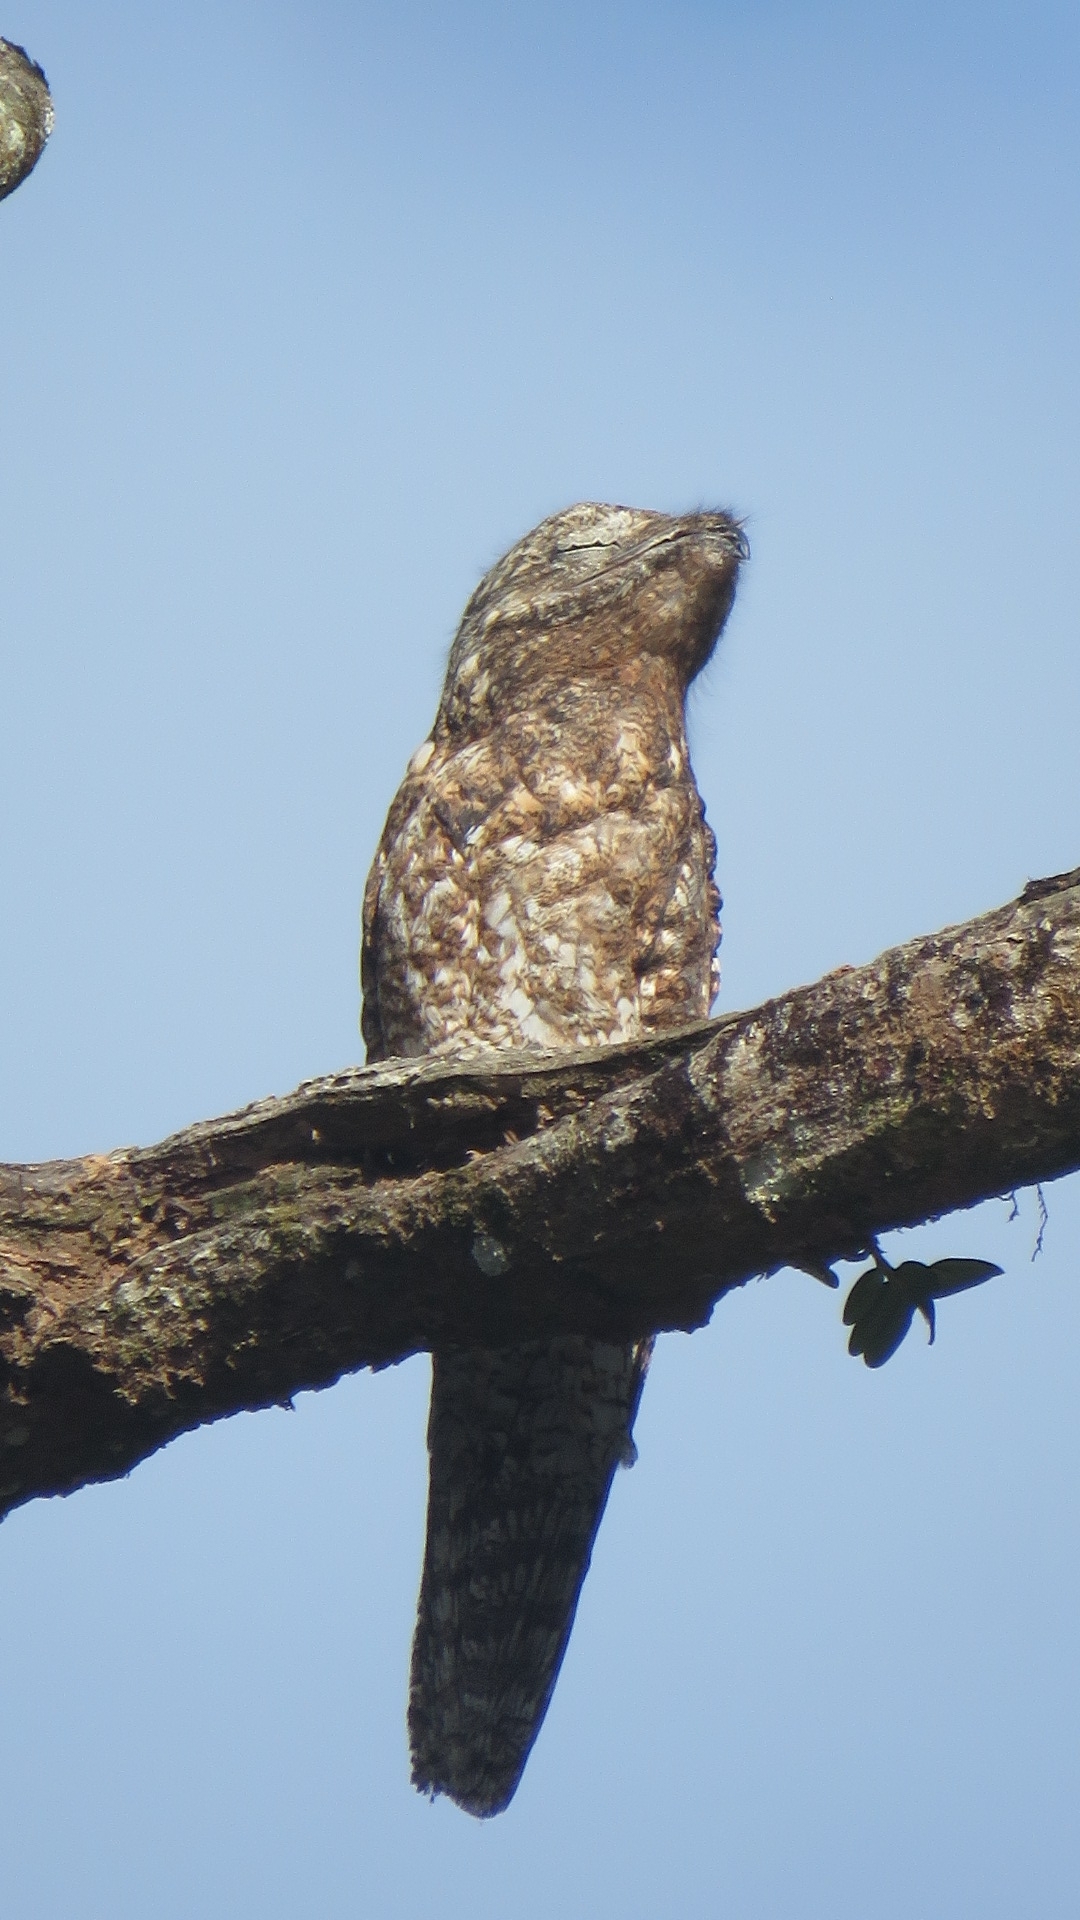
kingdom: Animalia
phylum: Chordata
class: Aves
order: Nyctibiiformes
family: Nyctibiidae
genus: Nyctibius
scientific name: Nyctibius grandis
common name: Great potoo
